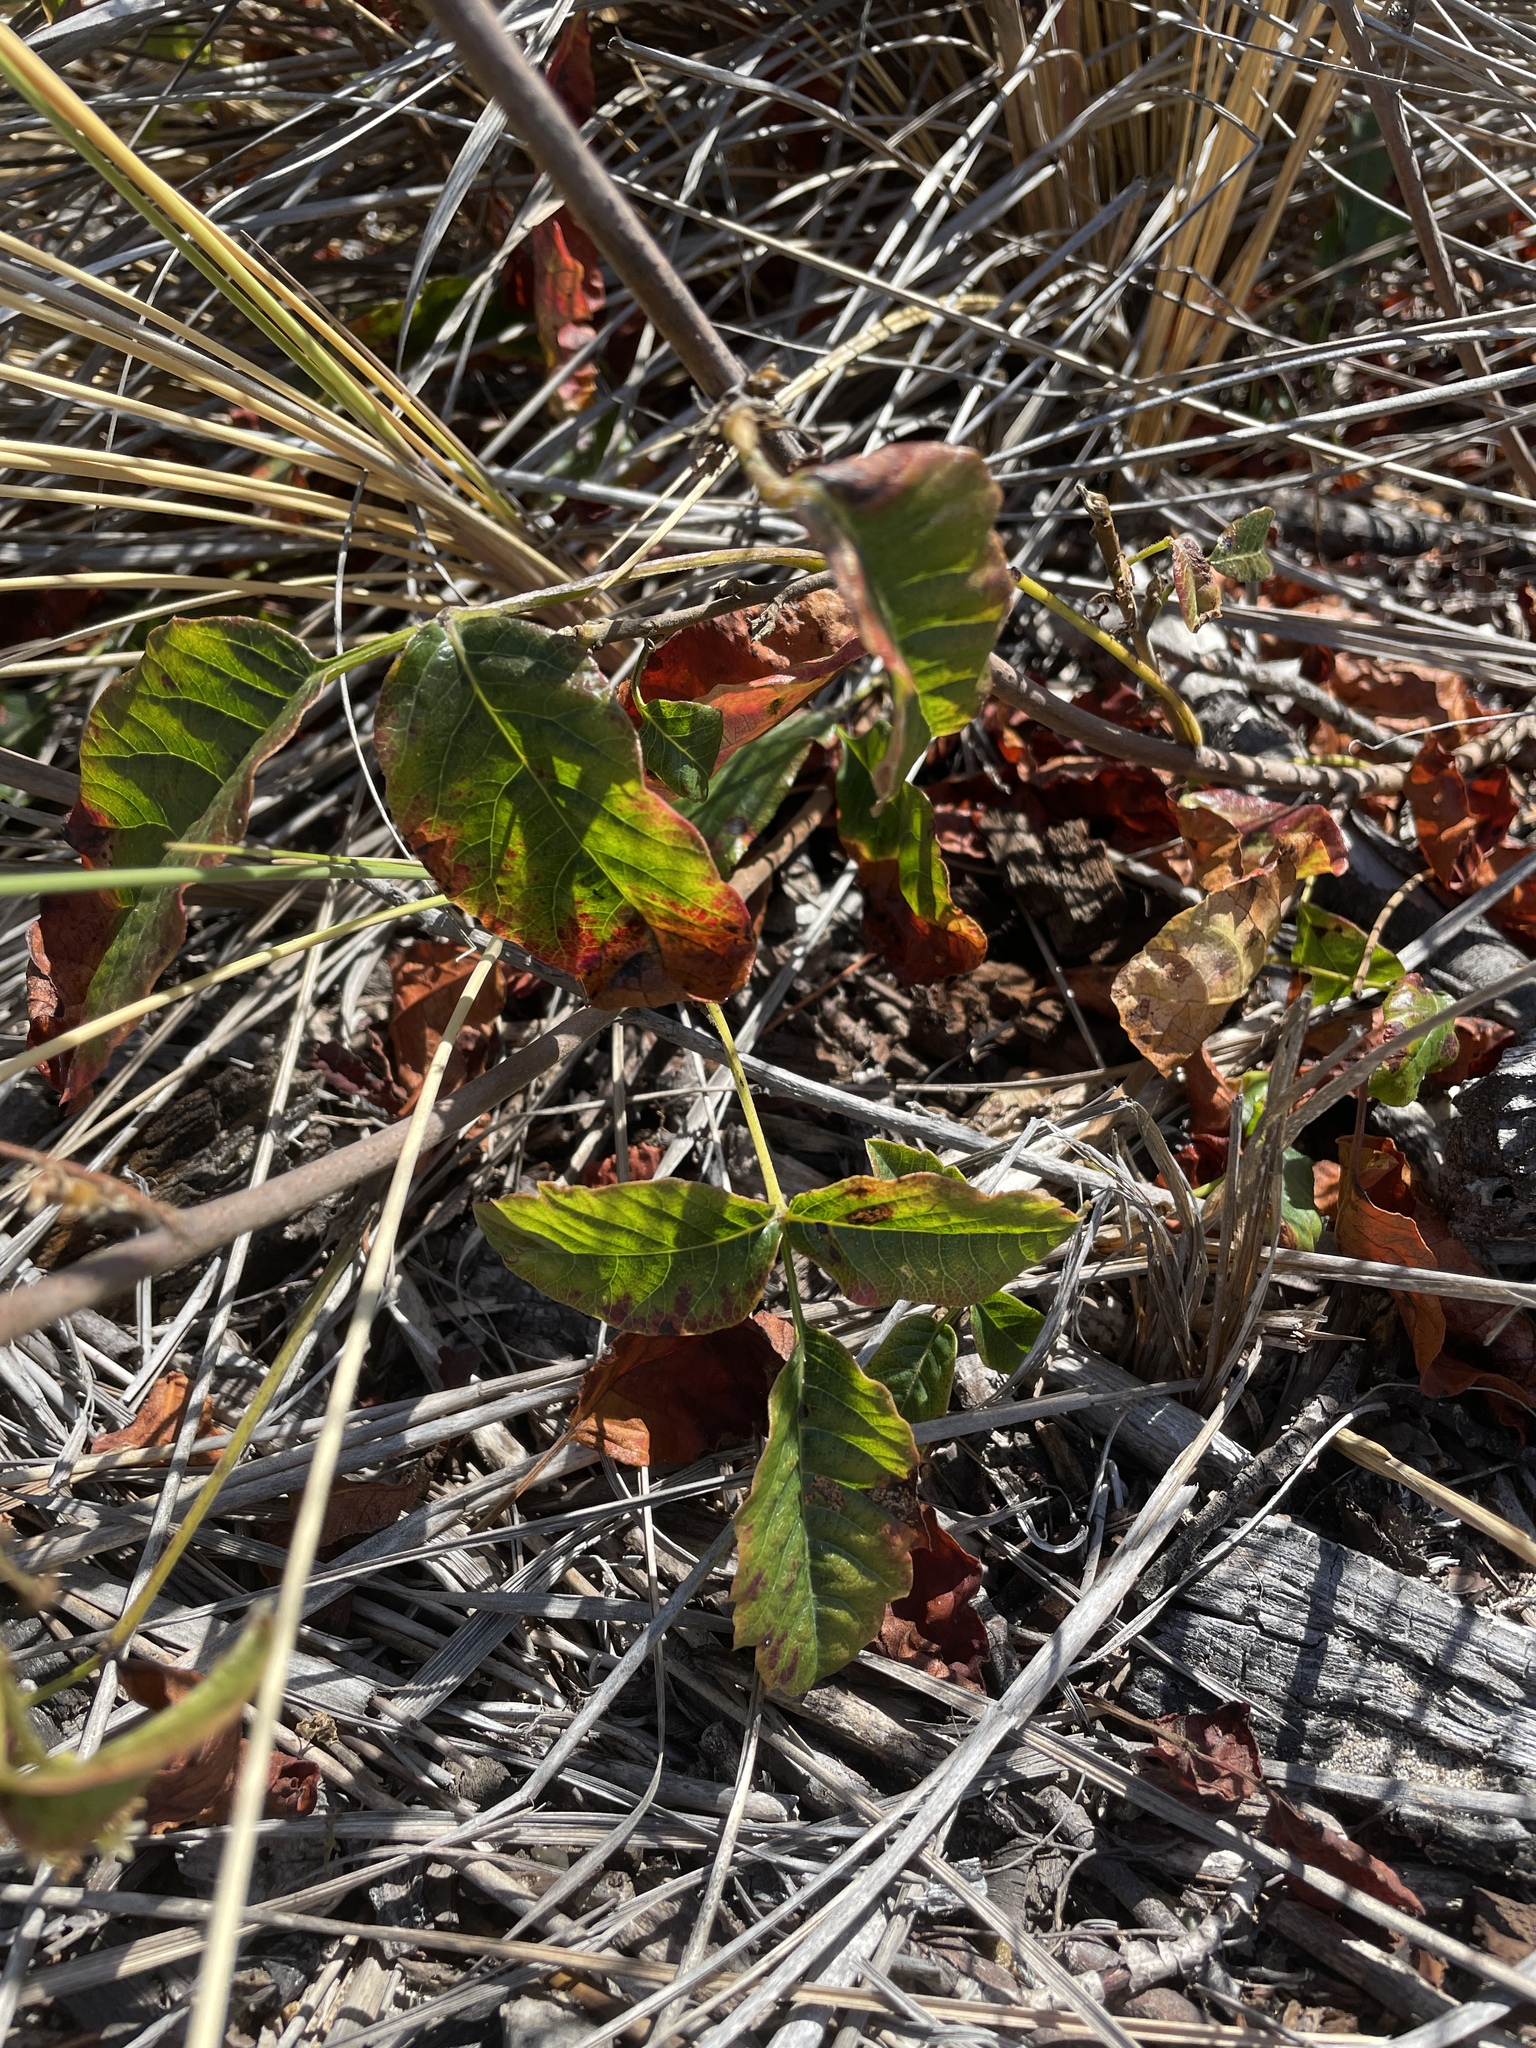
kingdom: Plantae
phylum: Tracheophyta
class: Magnoliopsida
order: Sapindales
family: Anacardiaceae
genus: Toxicodendron
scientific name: Toxicodendron diversilobum
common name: Pacific poison-oak
